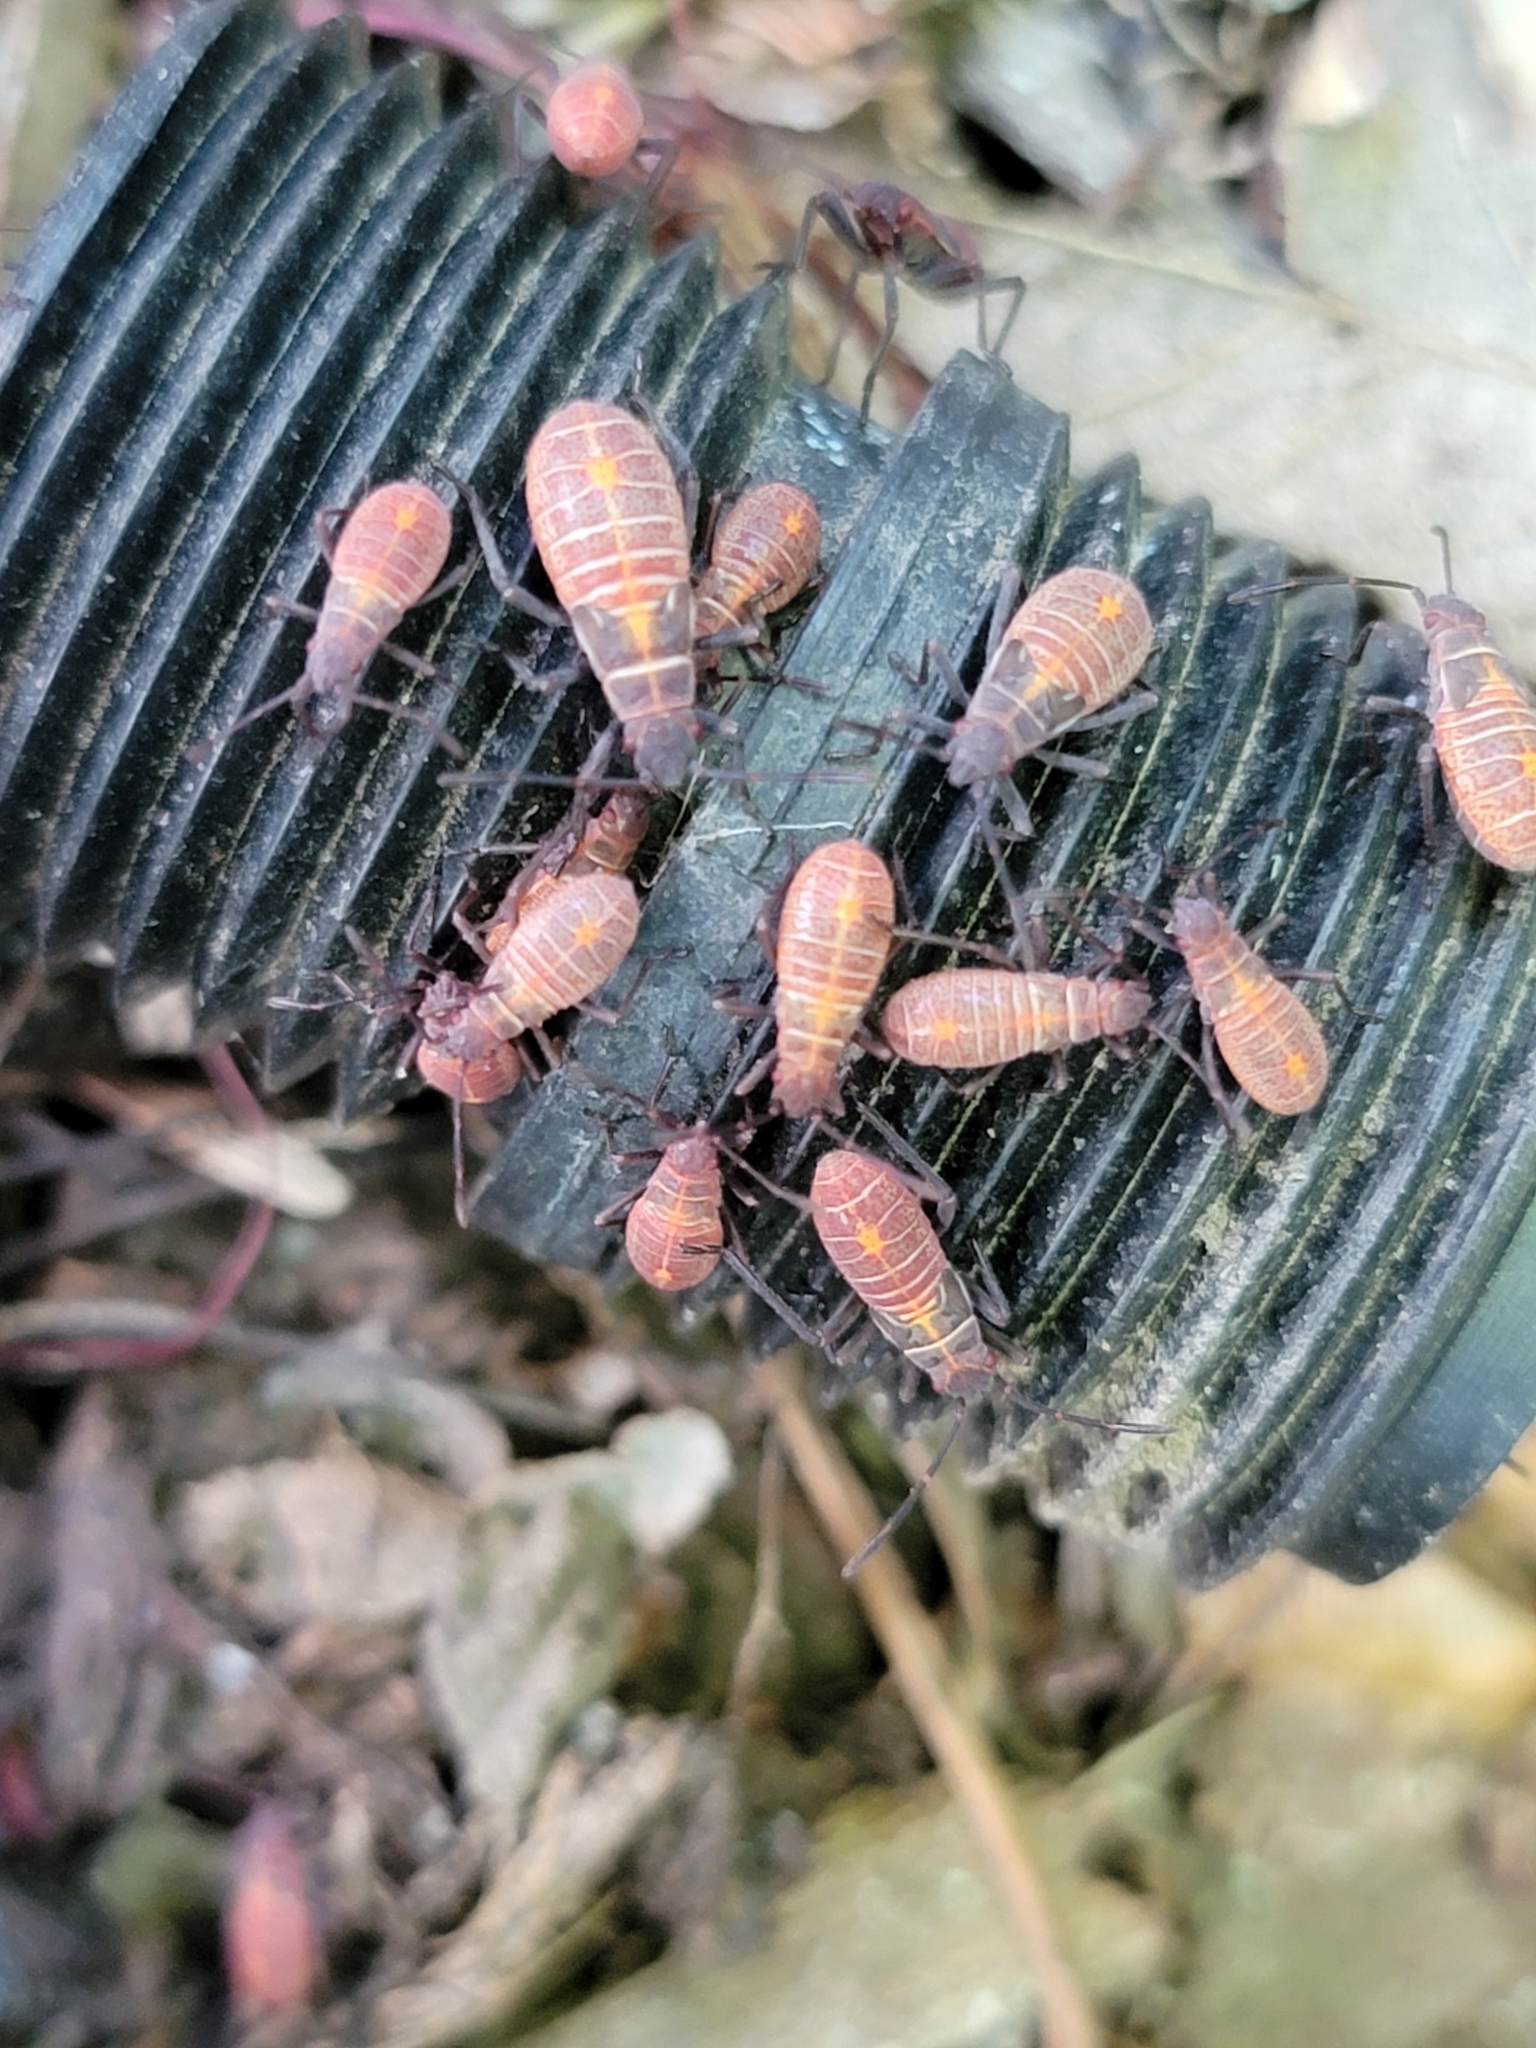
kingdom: Animalia
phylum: Arthropoda
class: Insecta
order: Hemiptera
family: Rhopalidae
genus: Boisea
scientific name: Boisea rubrolineata
